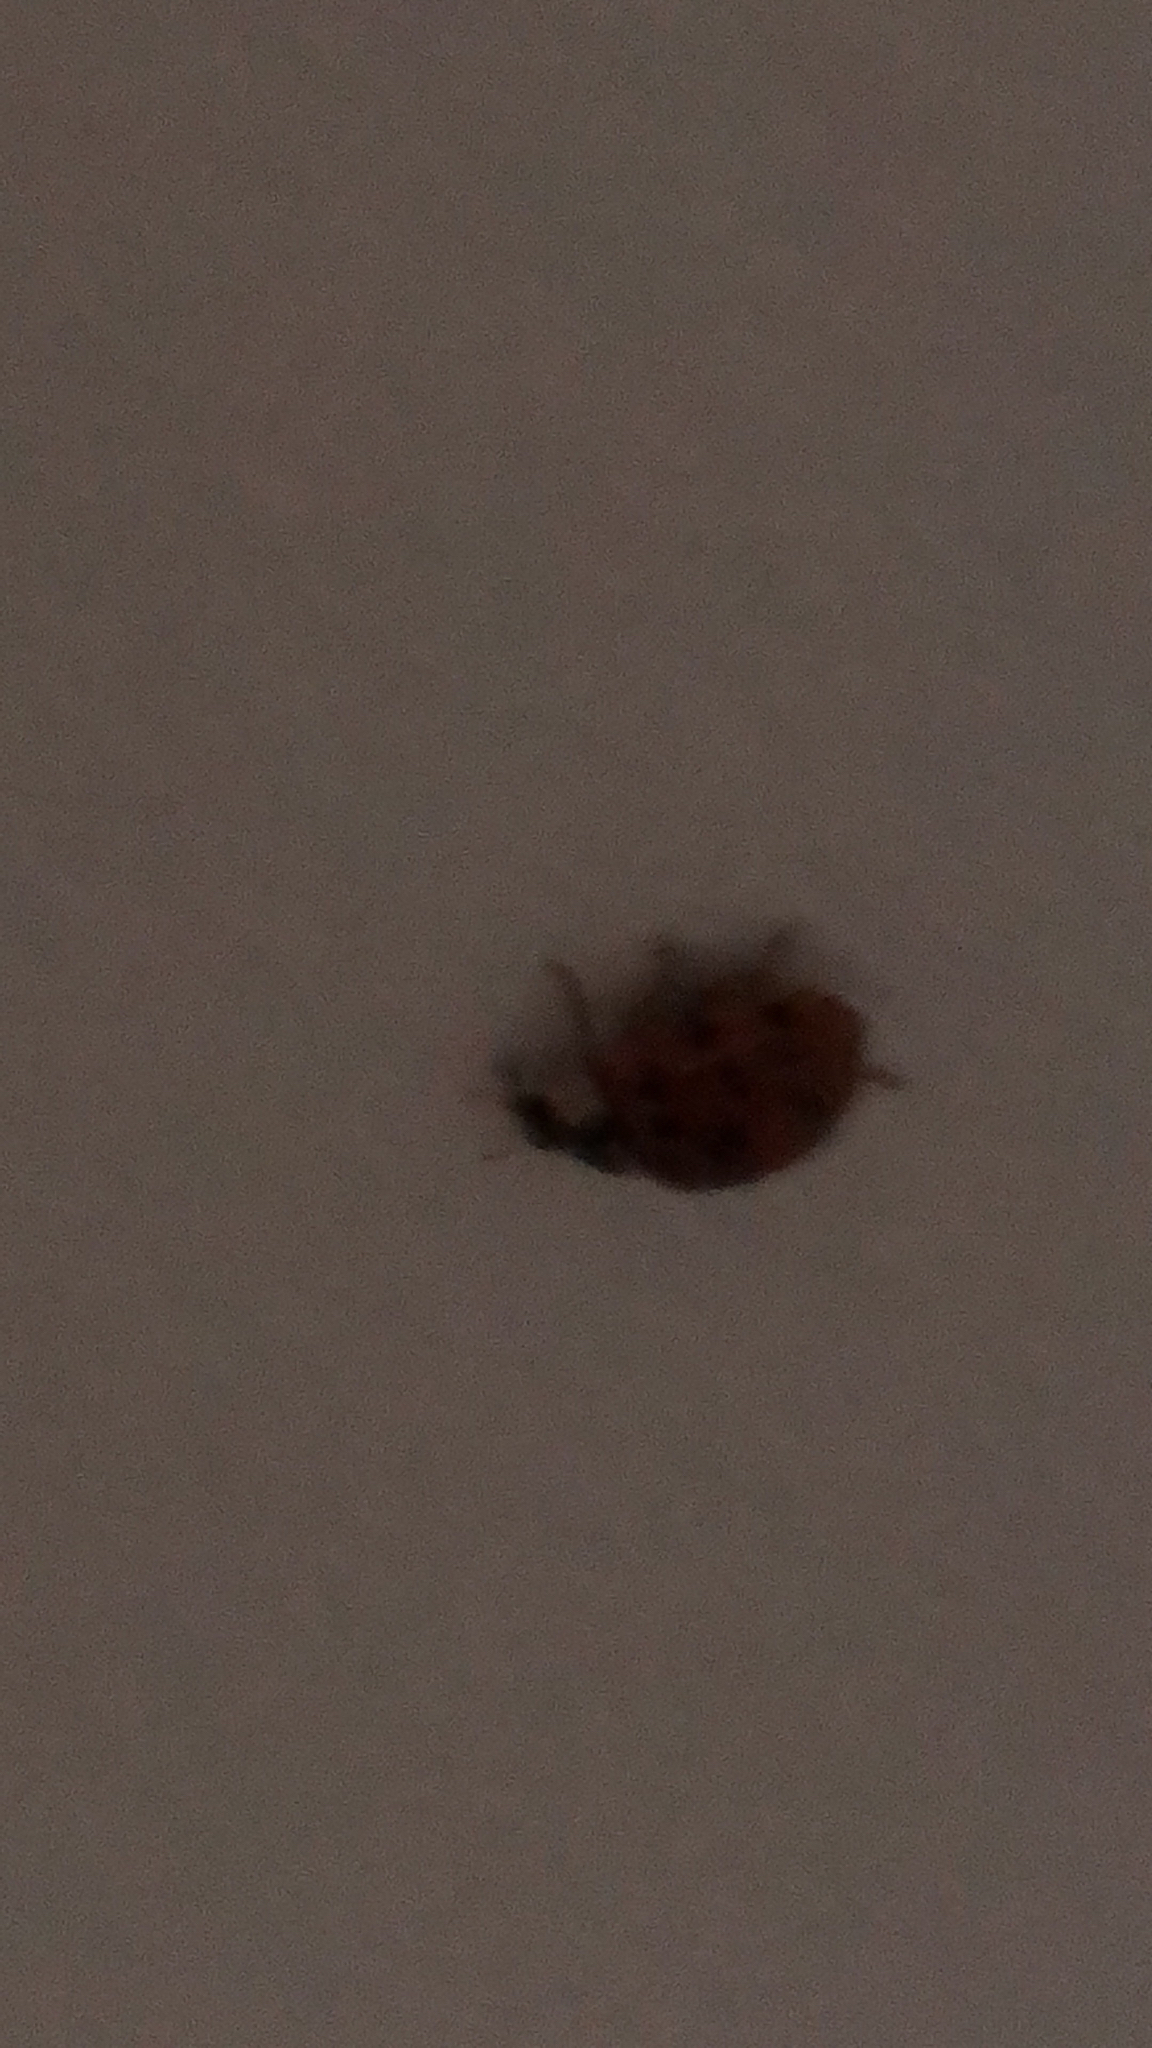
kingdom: Animalia
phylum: Arthropoda
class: Insecta
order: Coleoptera
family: Coccinellidae
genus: Harmonia
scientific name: Harmonia axyridis
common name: Harlequin ladybird
